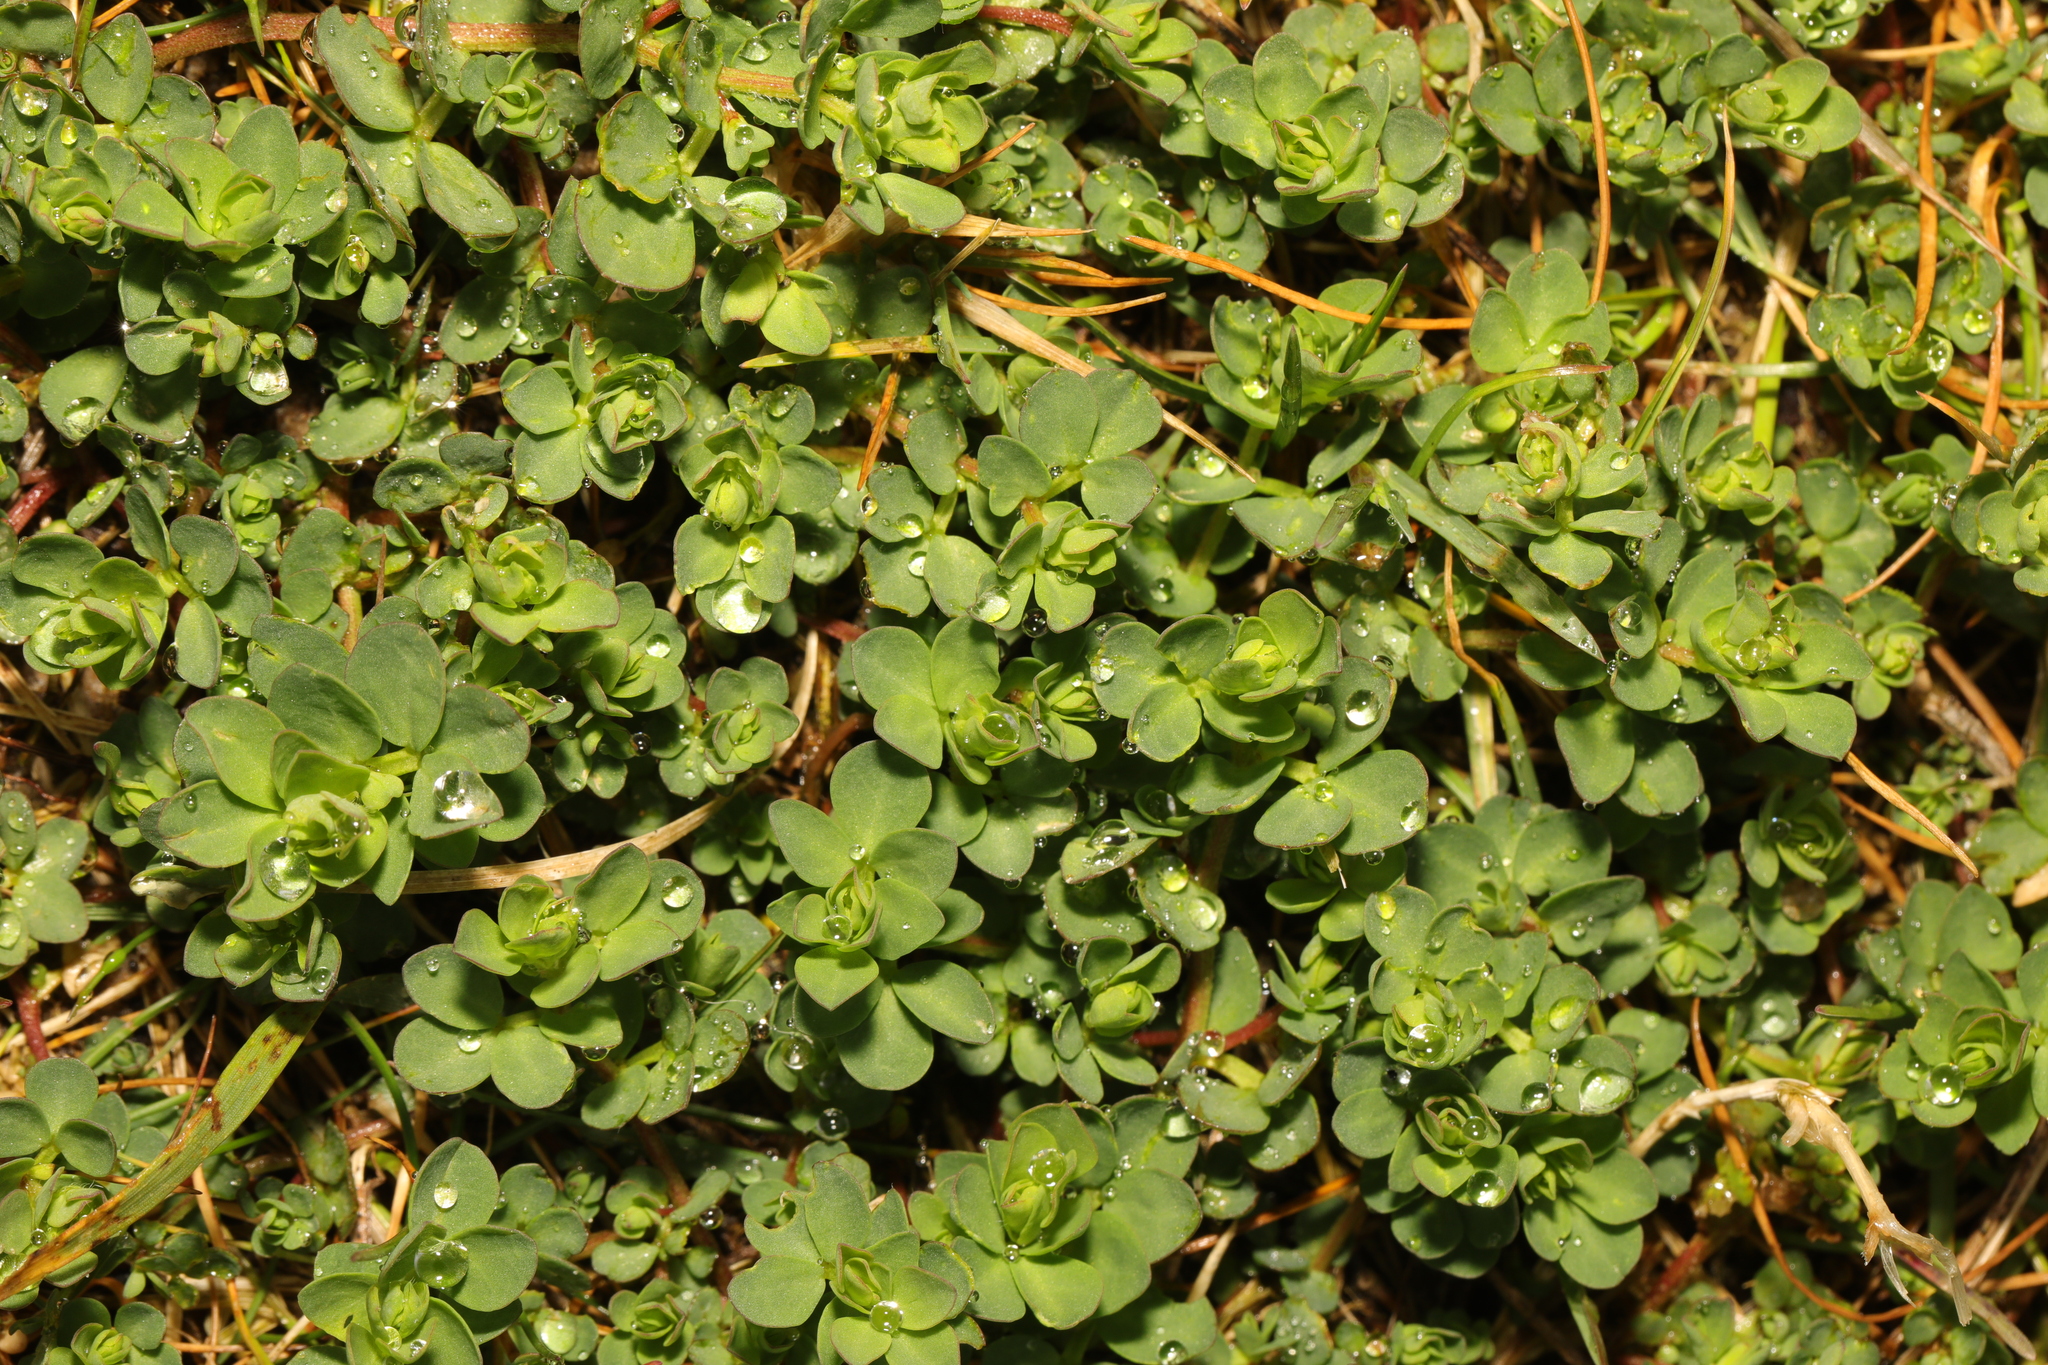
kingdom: Plantae
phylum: Tracheophyta
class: Magnoliopsida
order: Fabales
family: Fabaceae
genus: Lotus
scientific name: Lotus corniculatus
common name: Common bird's-foot-trefoil
